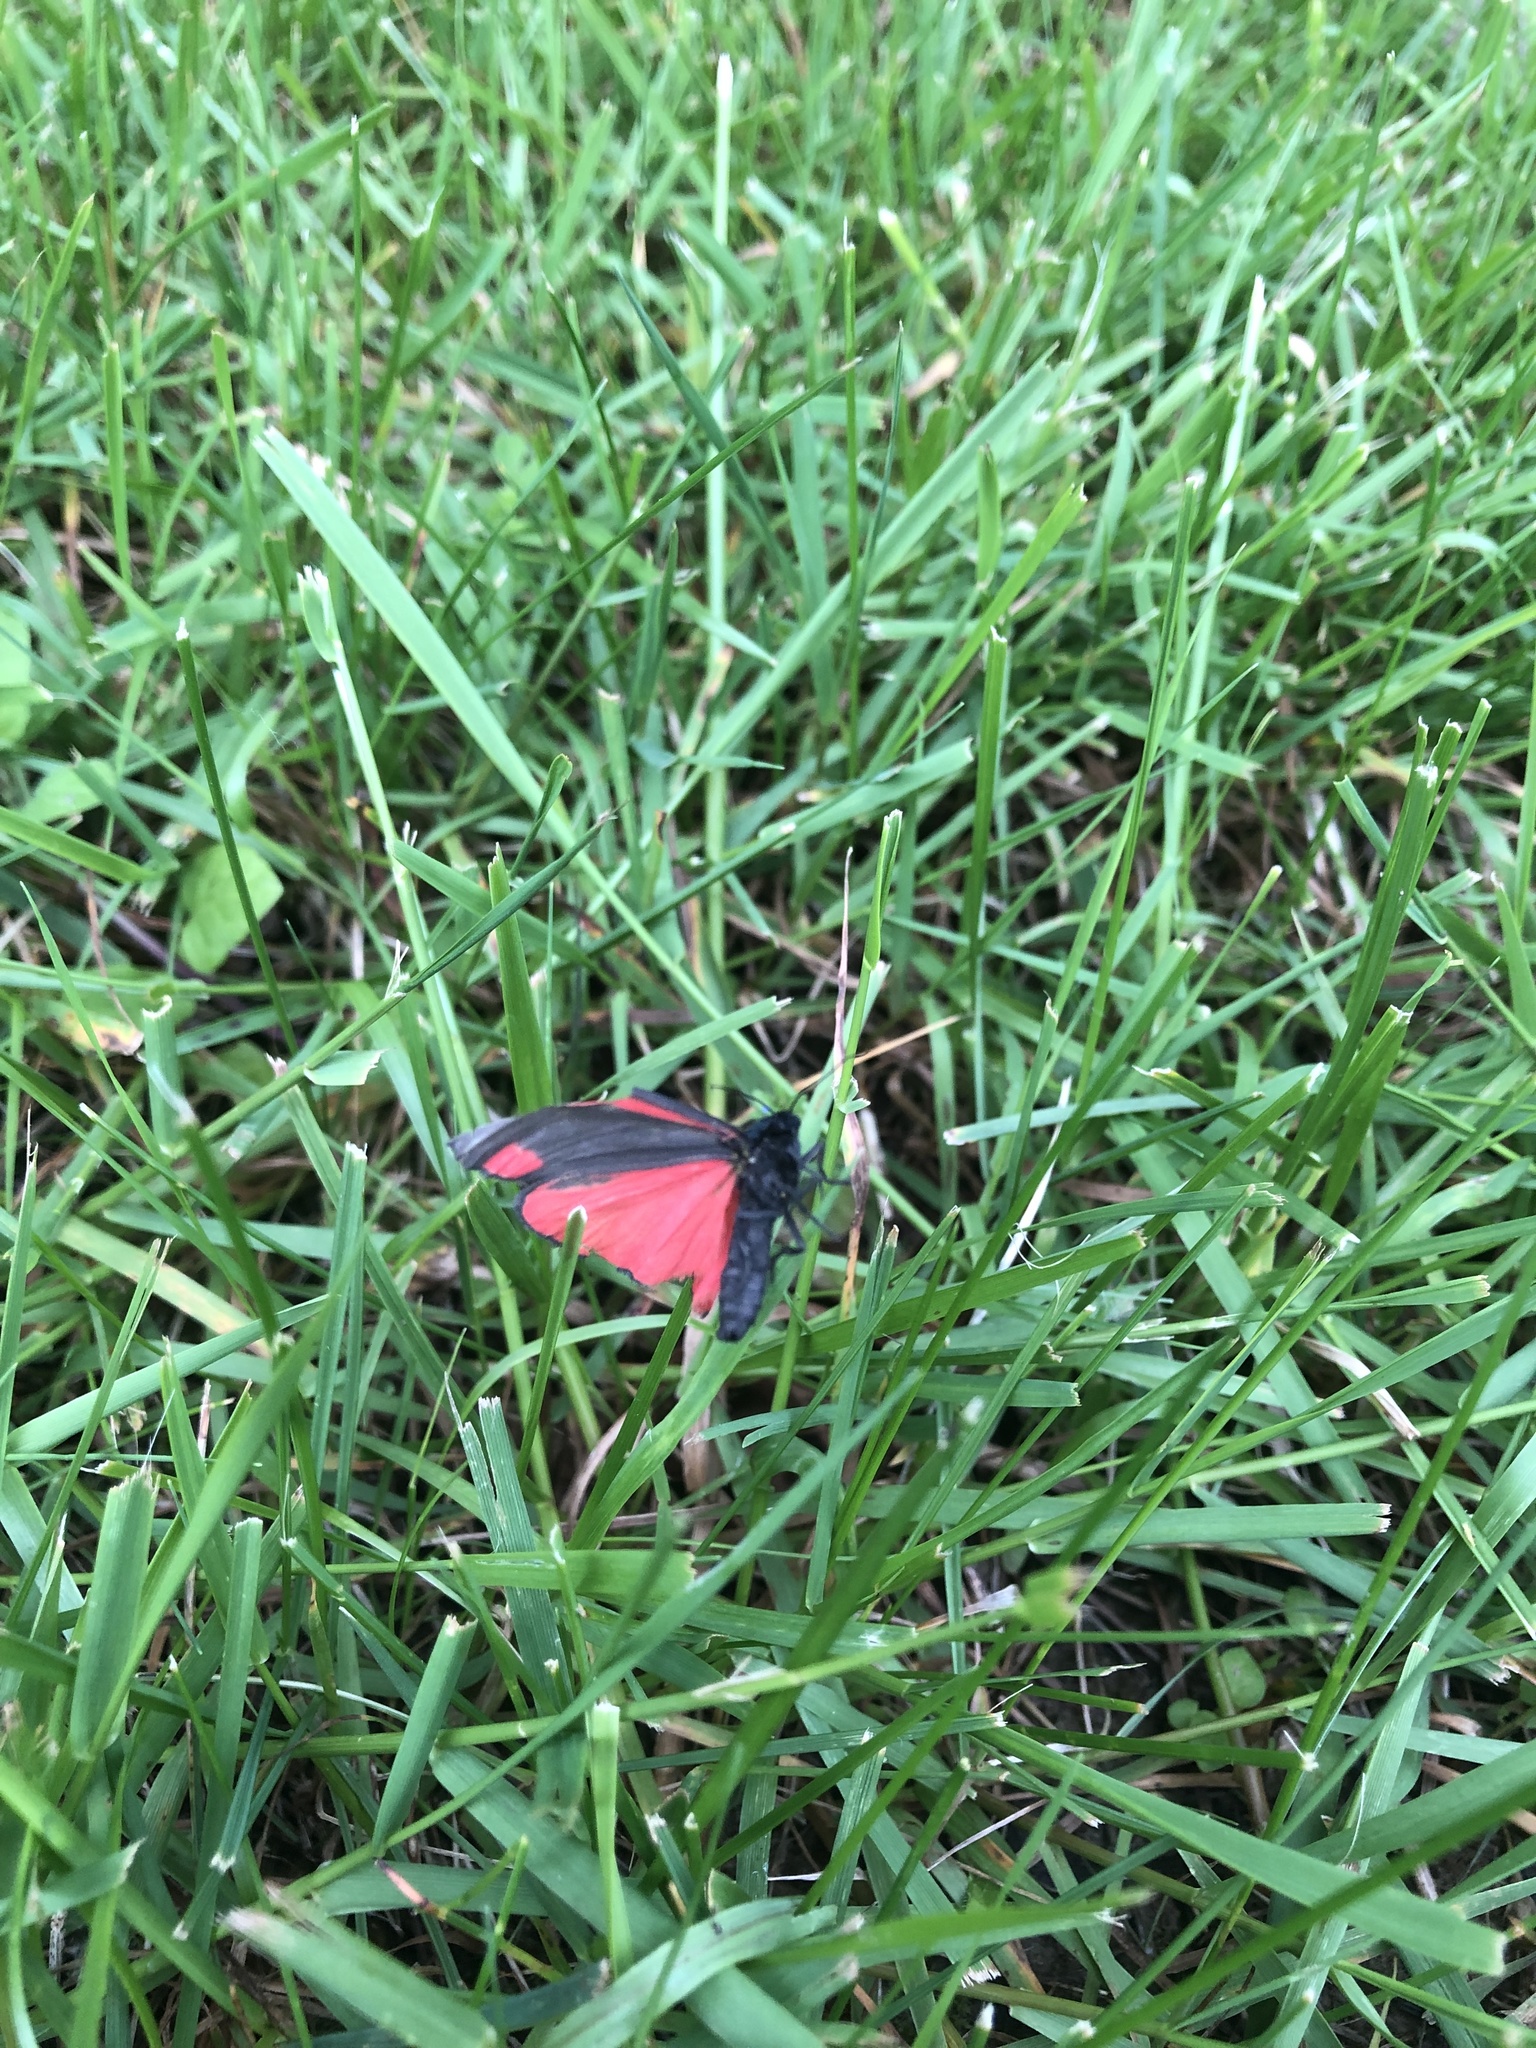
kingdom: Animalia
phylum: Arthropoda
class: Insecta
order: Lepidoptera
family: Erebidae
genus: Tyria
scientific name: Tyria jacobaeae
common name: Cinnabar
